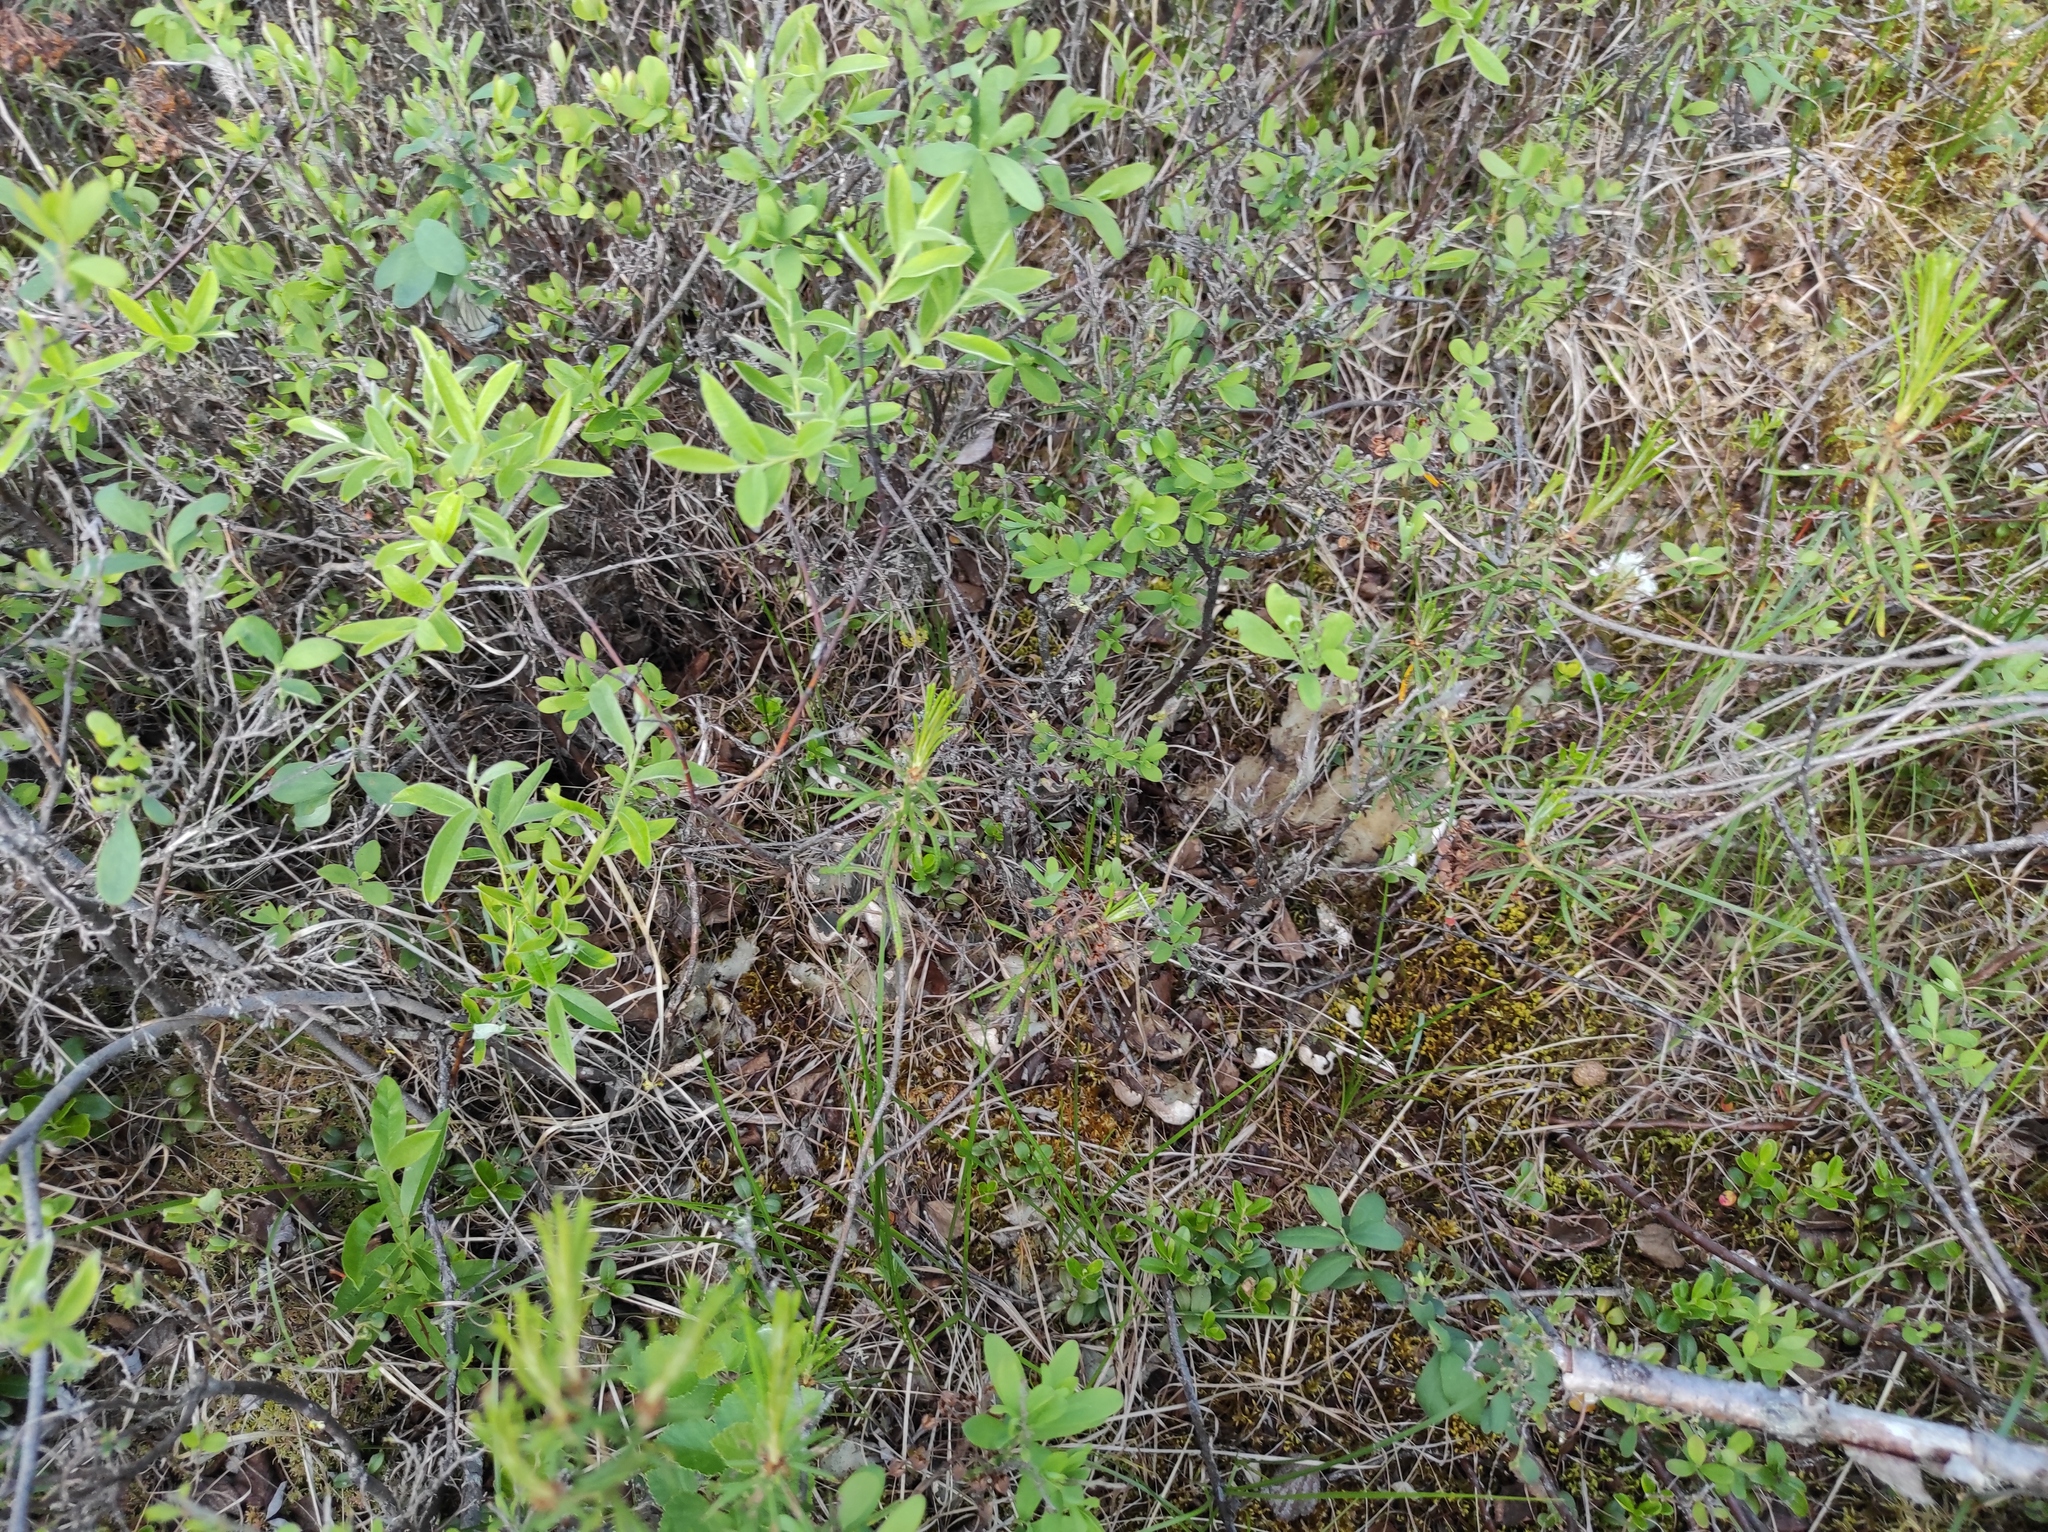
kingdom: Plantae
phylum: Tracheophyta
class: Magnoliopsida
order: Ericales
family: Ericaceae
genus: Rhododendron
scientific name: Rhododendron tomentosum
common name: Marsh labrador tea
